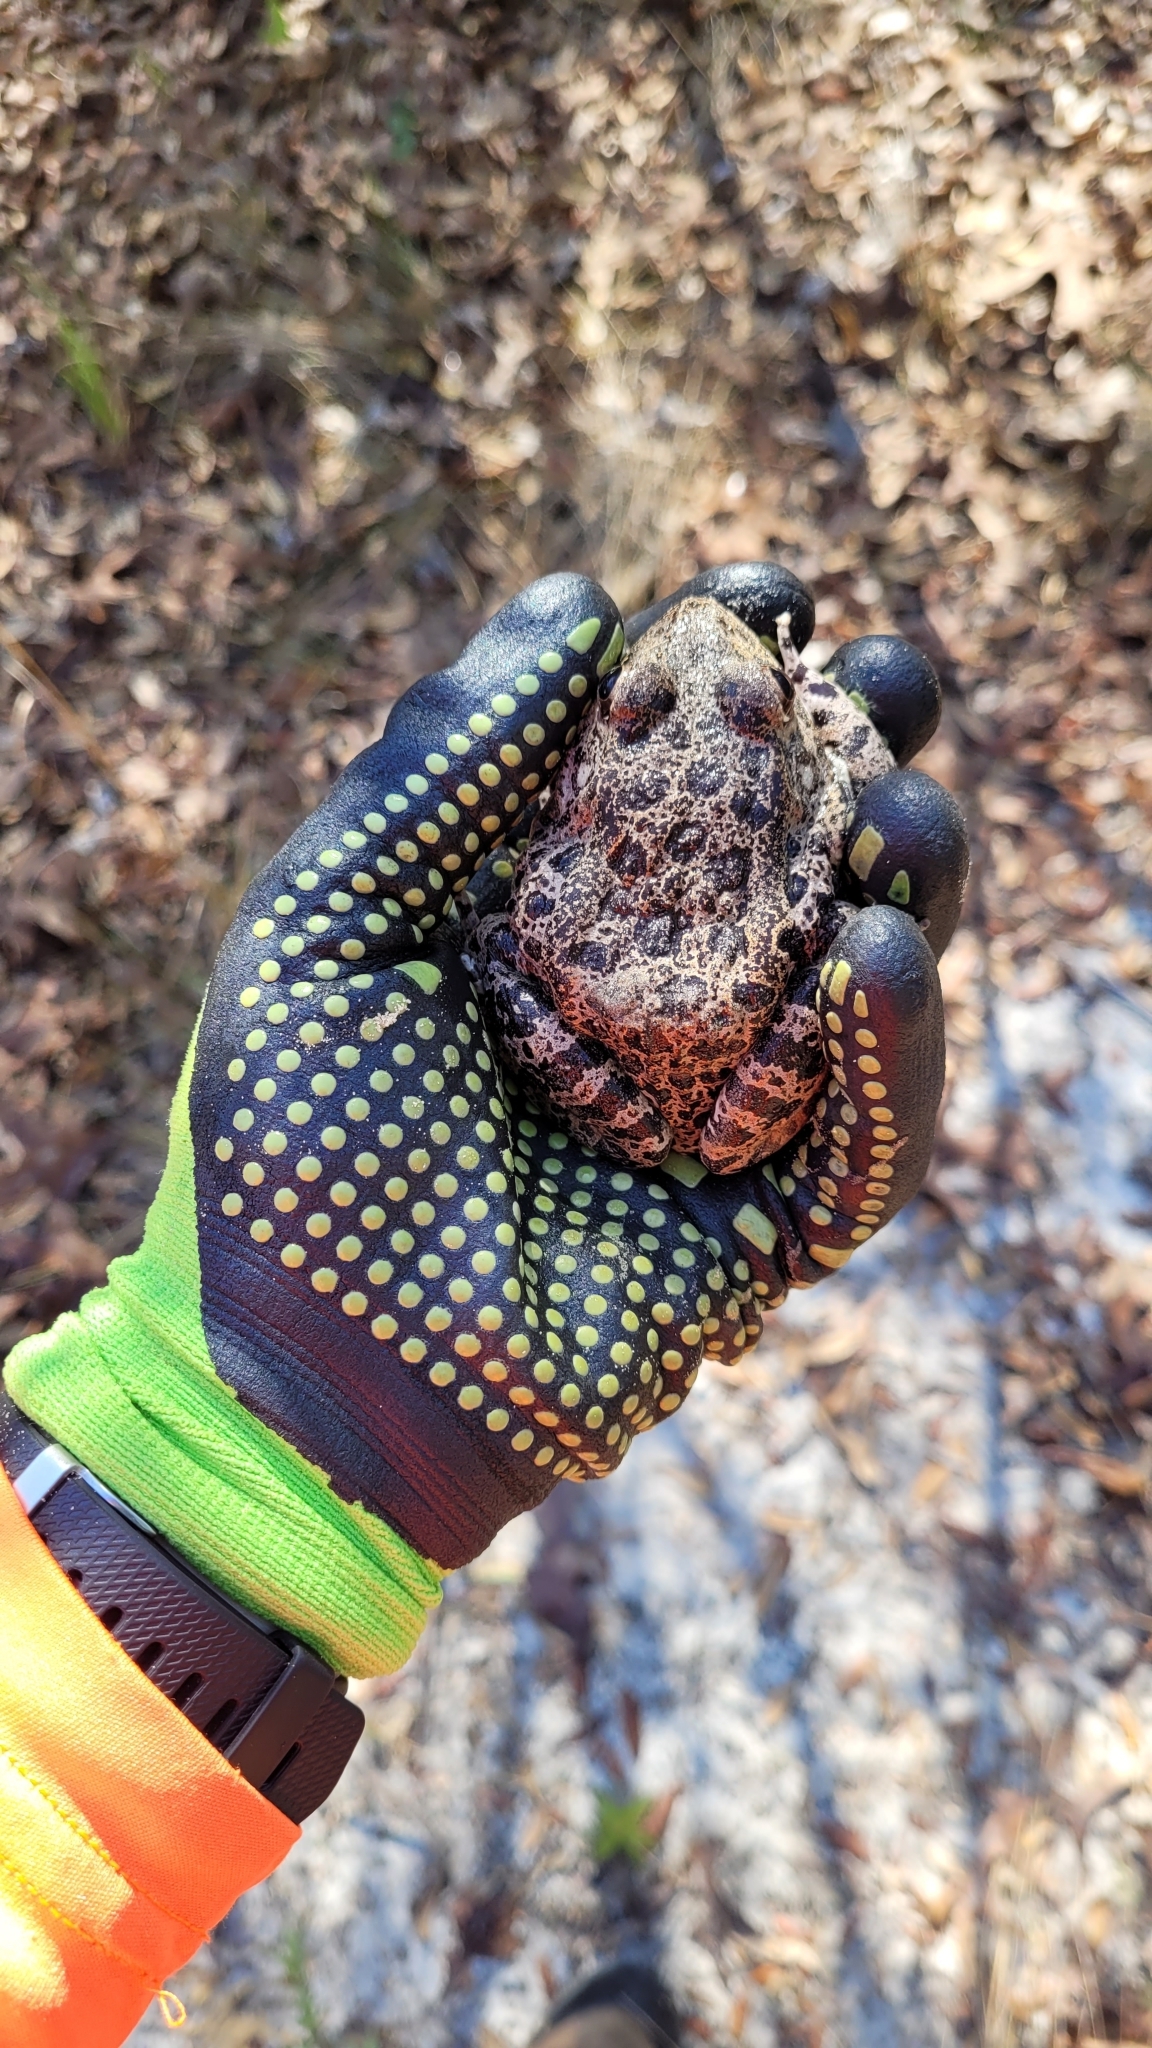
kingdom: Animalia
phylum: Chordata
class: Amphibia
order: Anura
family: Ranidae
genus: Lithobates
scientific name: Lithobates capito
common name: Gopher frog
